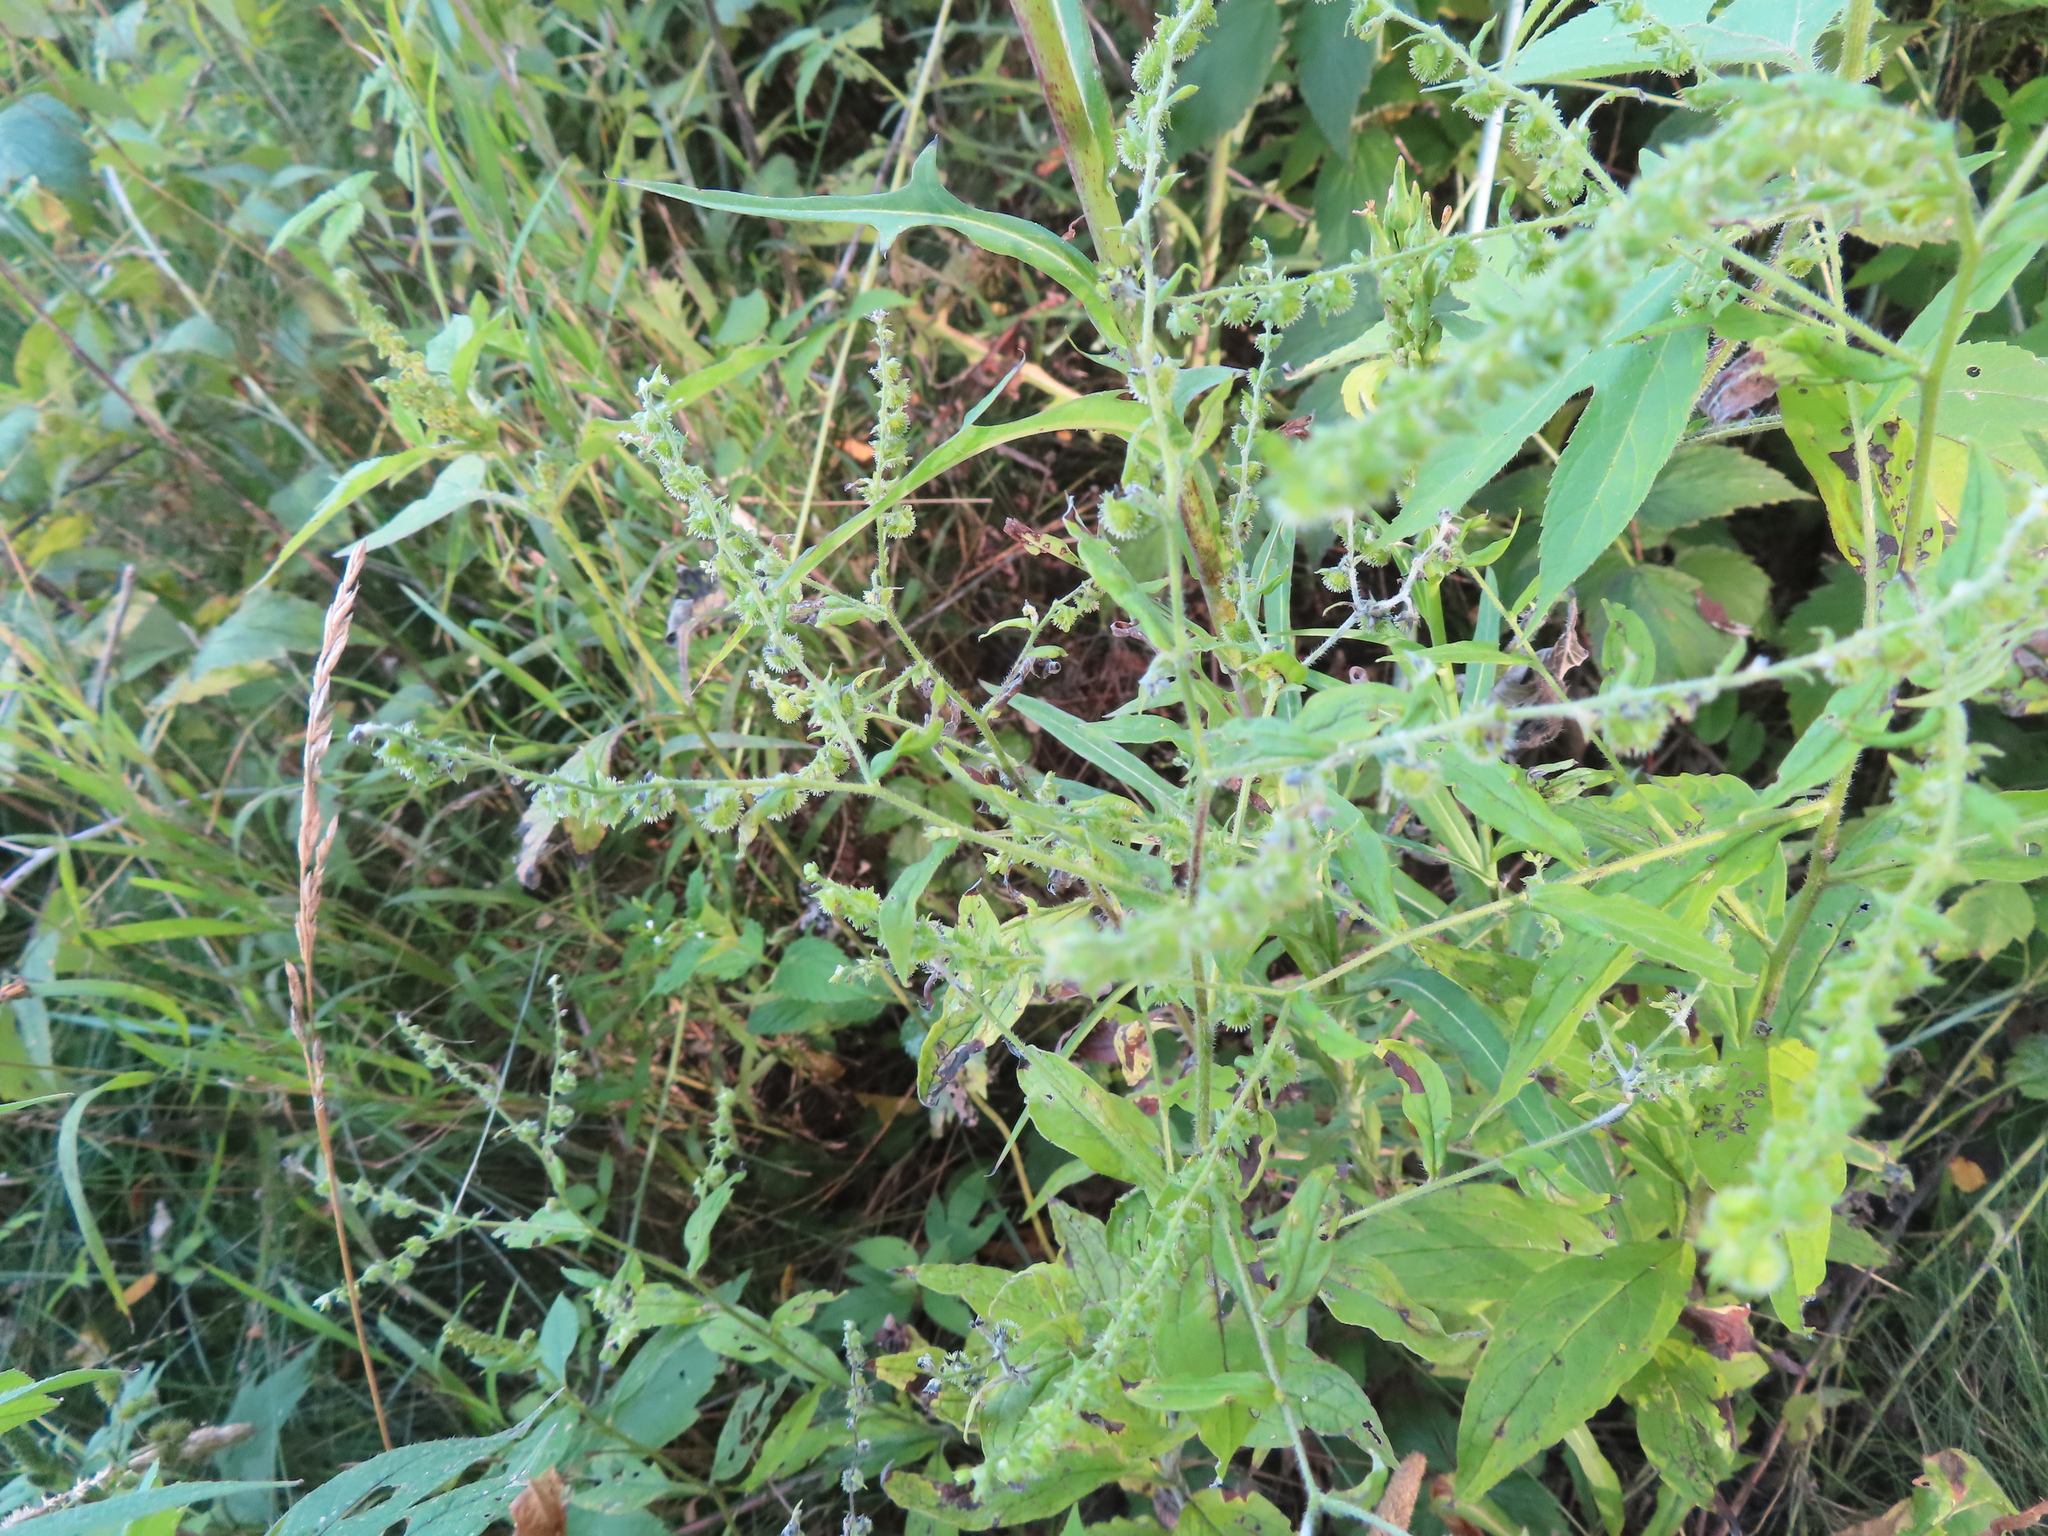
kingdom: Plantae
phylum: Tracheophyta
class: Magnoliopsida
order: Boraginales
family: Boraginaceae
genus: Hackelia
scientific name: Hackelia virginiana
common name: Beggar's-lice
